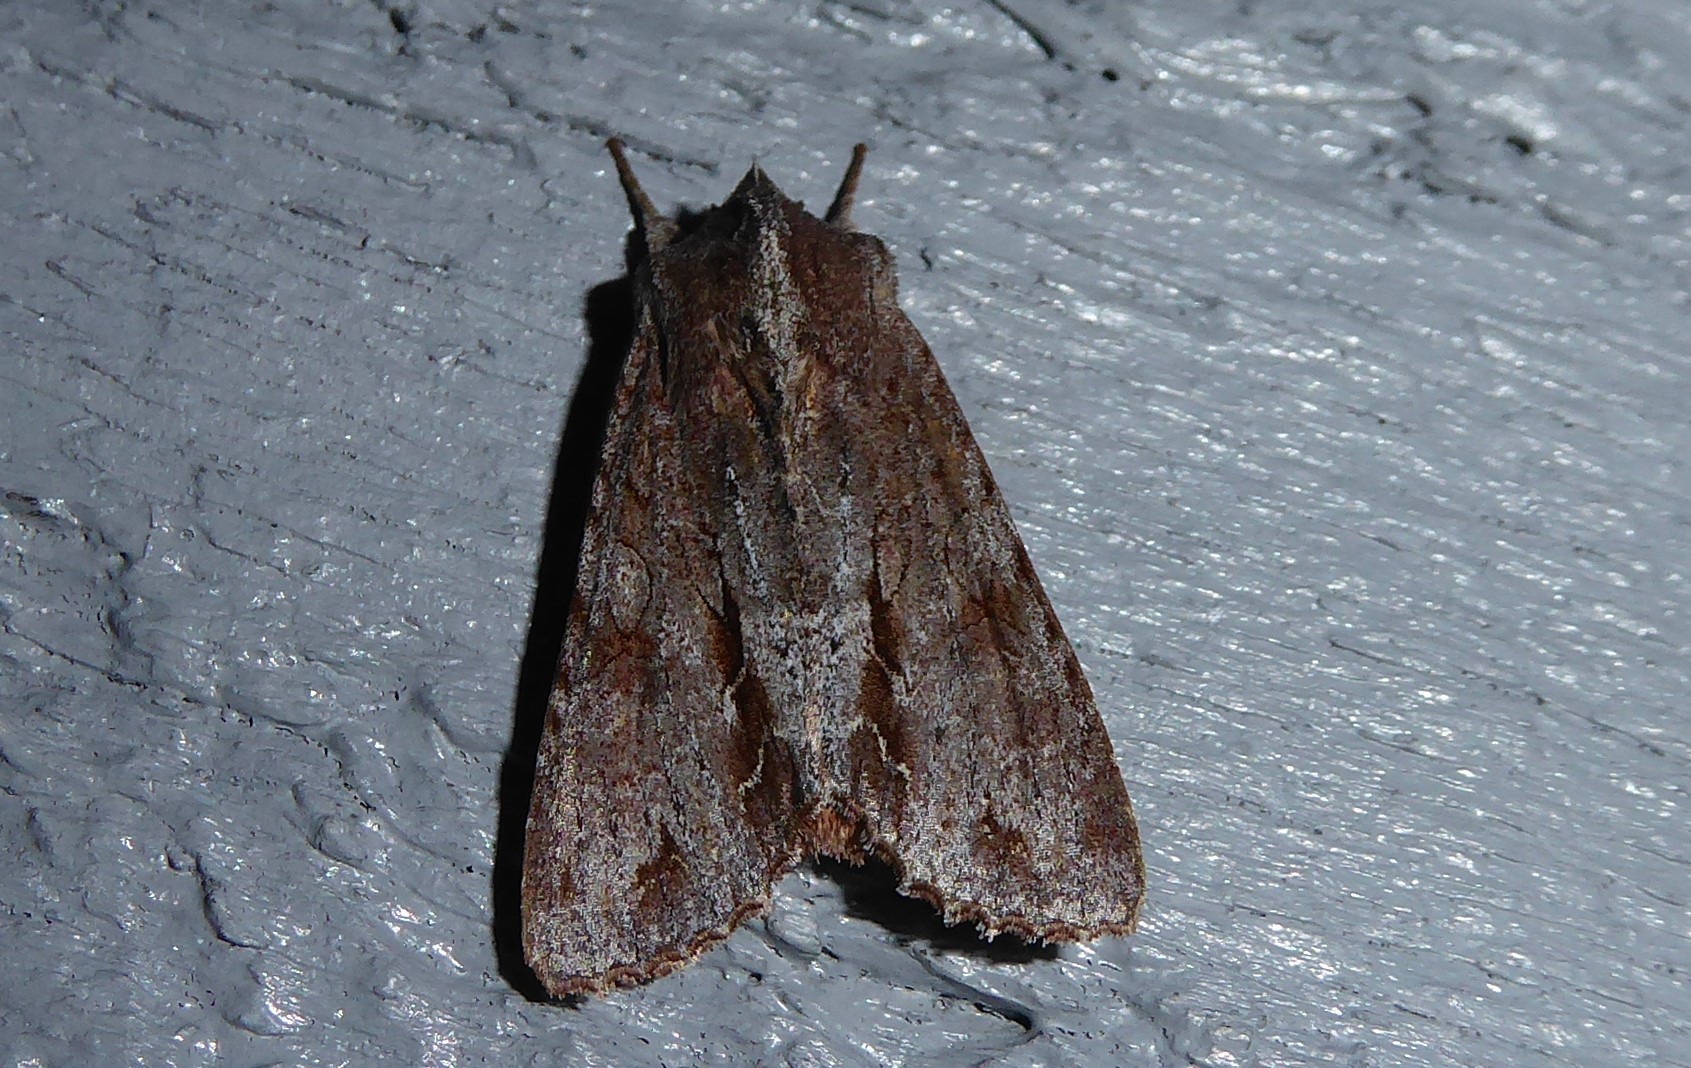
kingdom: Animalia
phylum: Arthropoda
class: Insecta
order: Lepidoptera
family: Noctuidae
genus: Ichneutica
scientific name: Ichneutica
